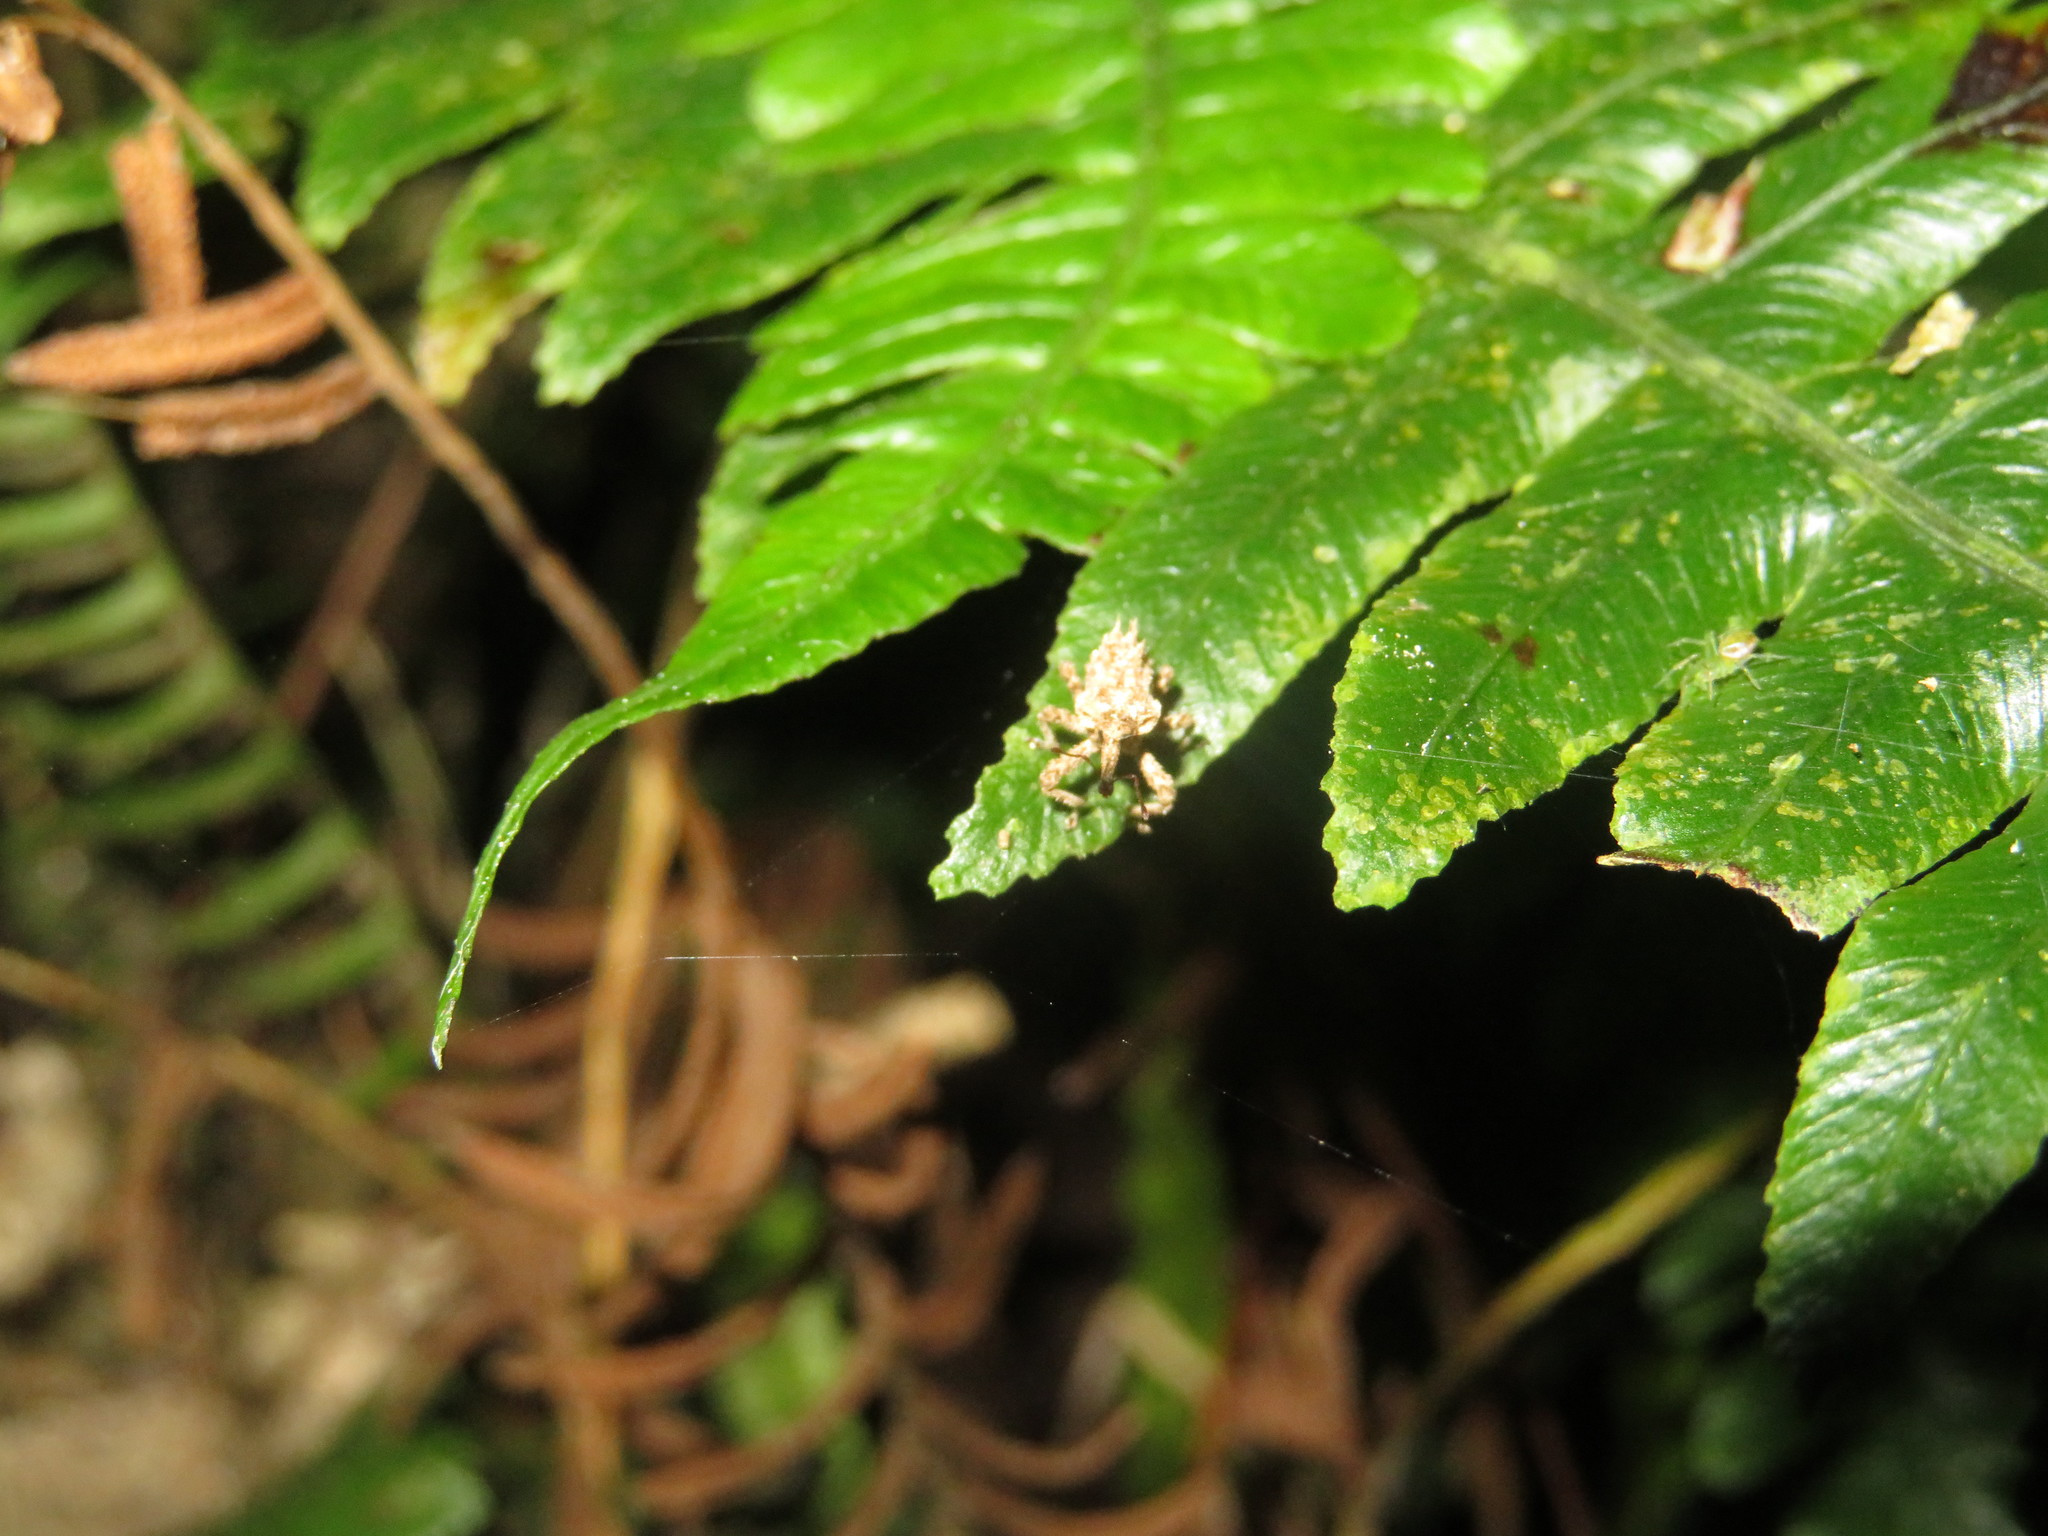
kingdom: Animalia
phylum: Arthropoda
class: Insecta
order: Coleoptera
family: Curculionidae
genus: Indecentia
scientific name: Indecentia nubila
